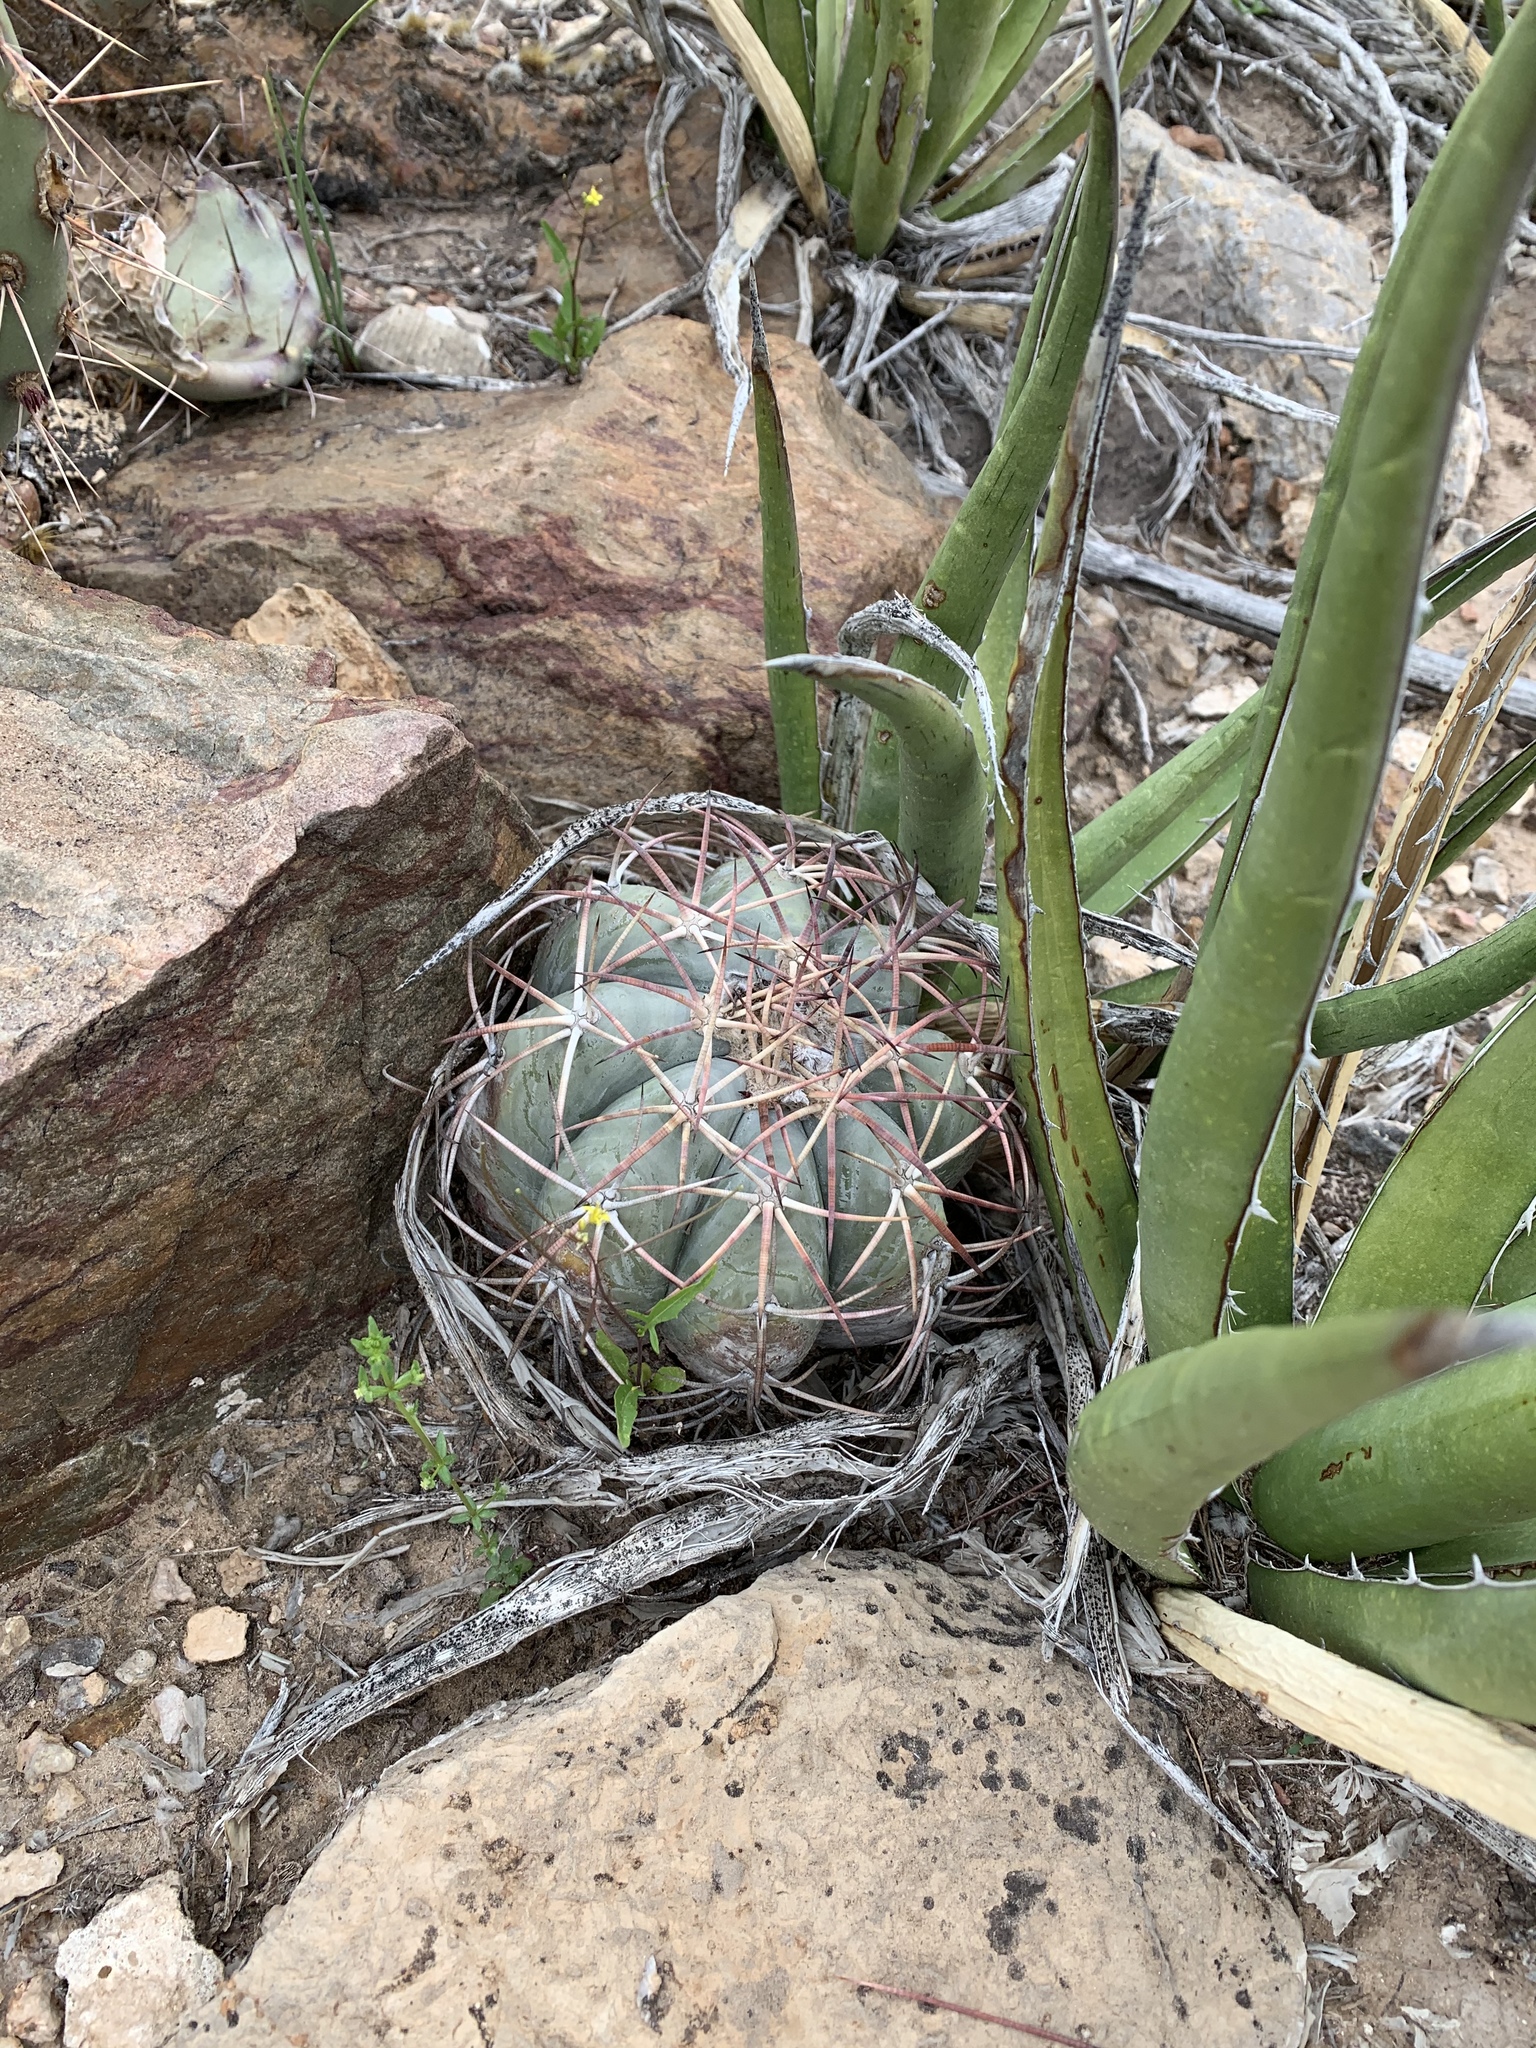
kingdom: Plantae
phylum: Tracheophyta
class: Magnoliopsida
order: Caryophyllales
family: Cactaceae
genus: Echinocactus
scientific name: Echinocactus horizonthalonius
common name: Devilshead
